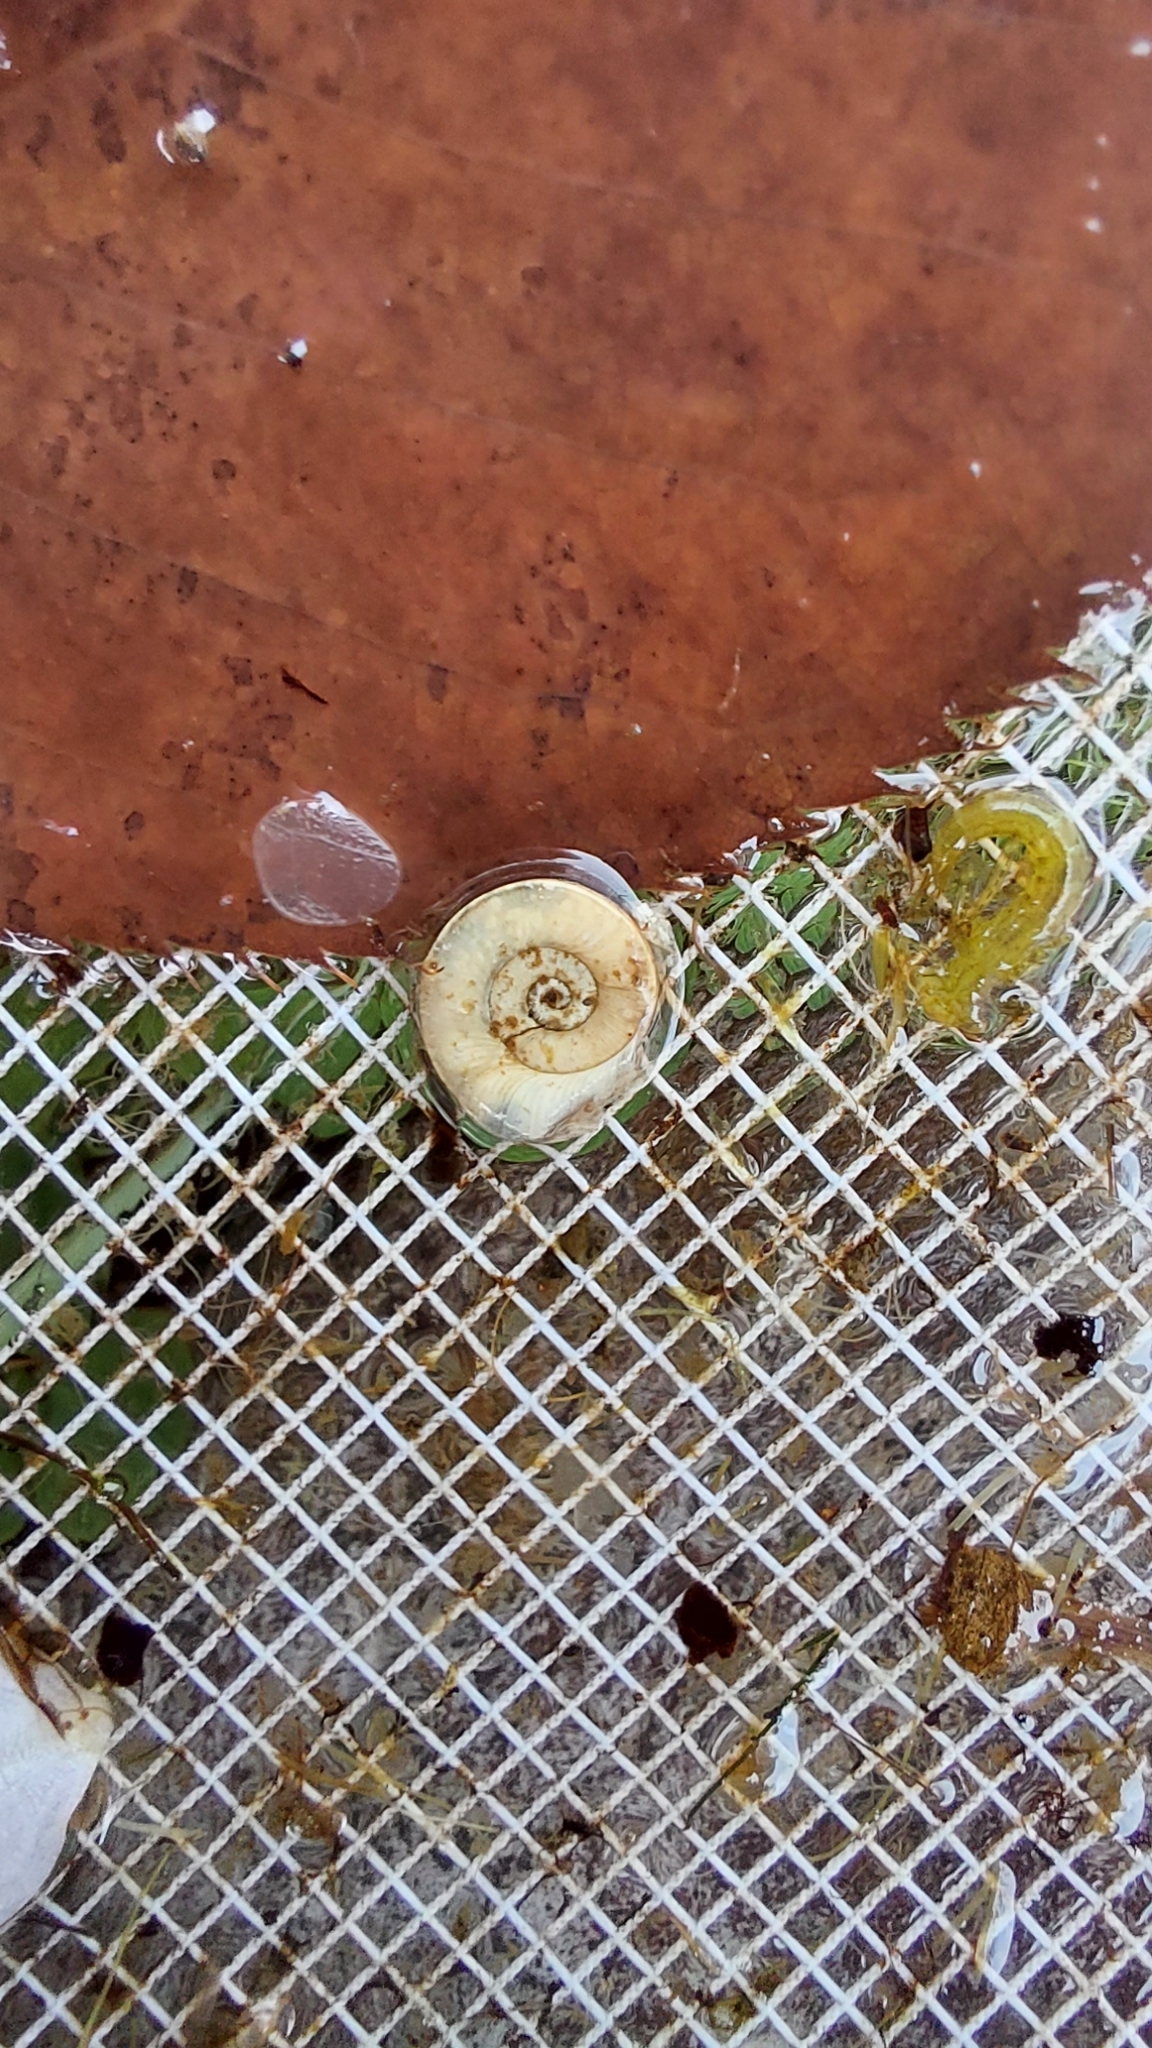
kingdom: Animalia
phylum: Mollusca
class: Gastropoda
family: Planorbidae
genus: Planorbis
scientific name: Planorbis planorbis
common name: Margined ramshorn
